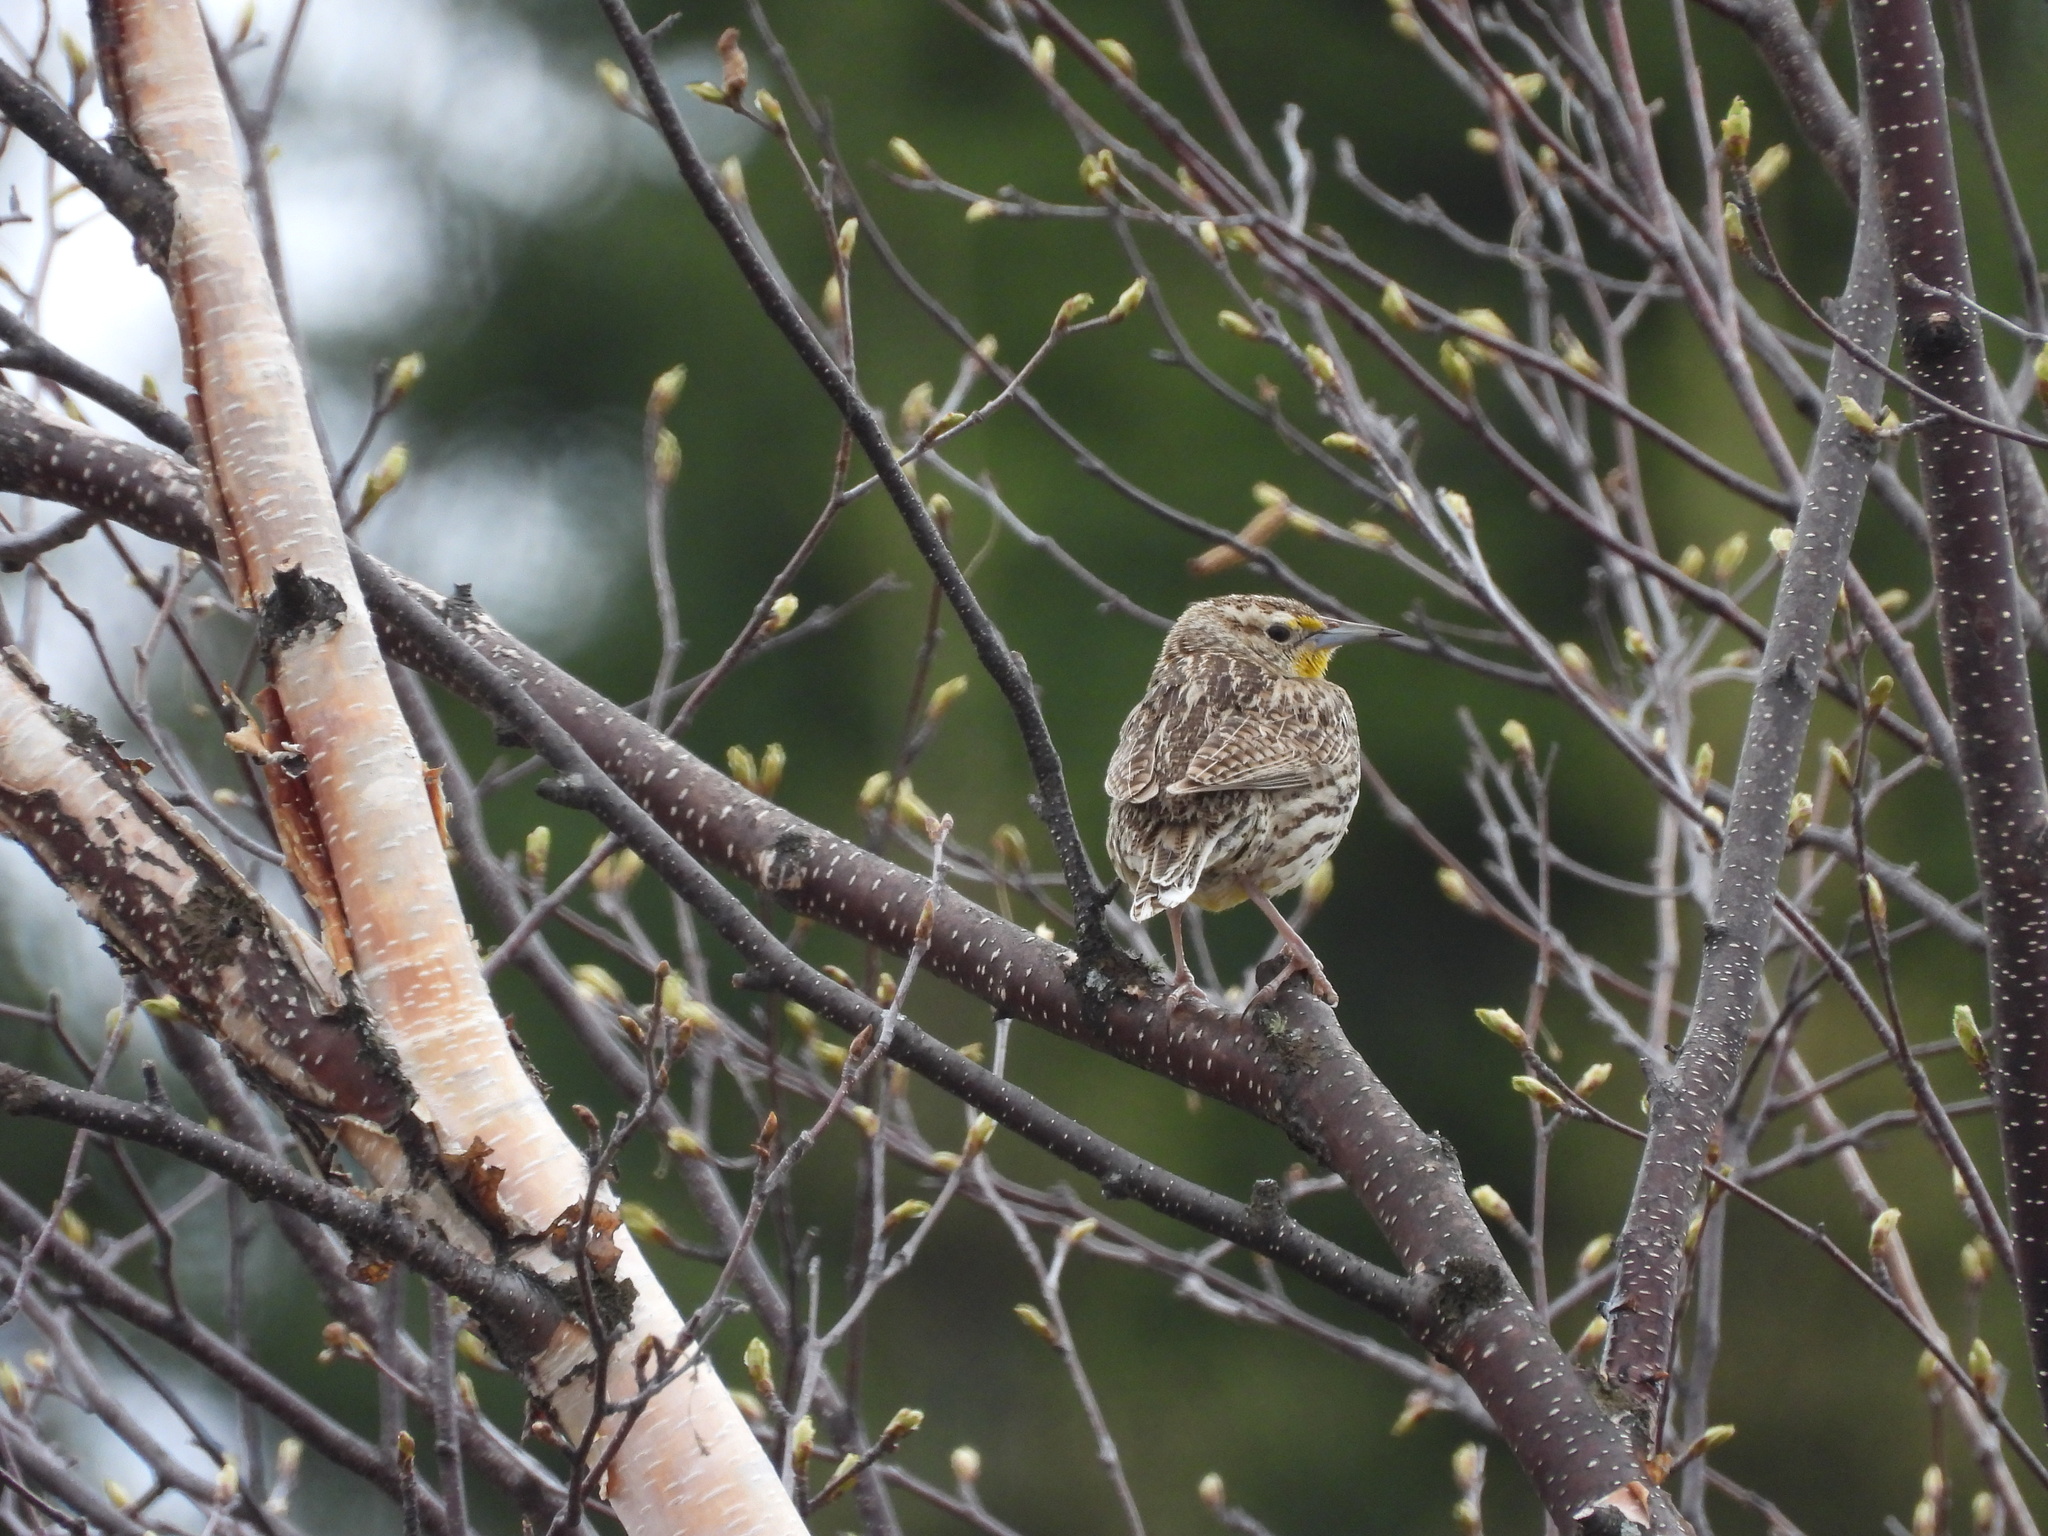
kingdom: Animalia
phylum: Chordata
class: Aves
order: Passeriformes
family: Icteridae
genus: Sturnella
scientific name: Sturnella neglecta
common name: Western meadowlark
